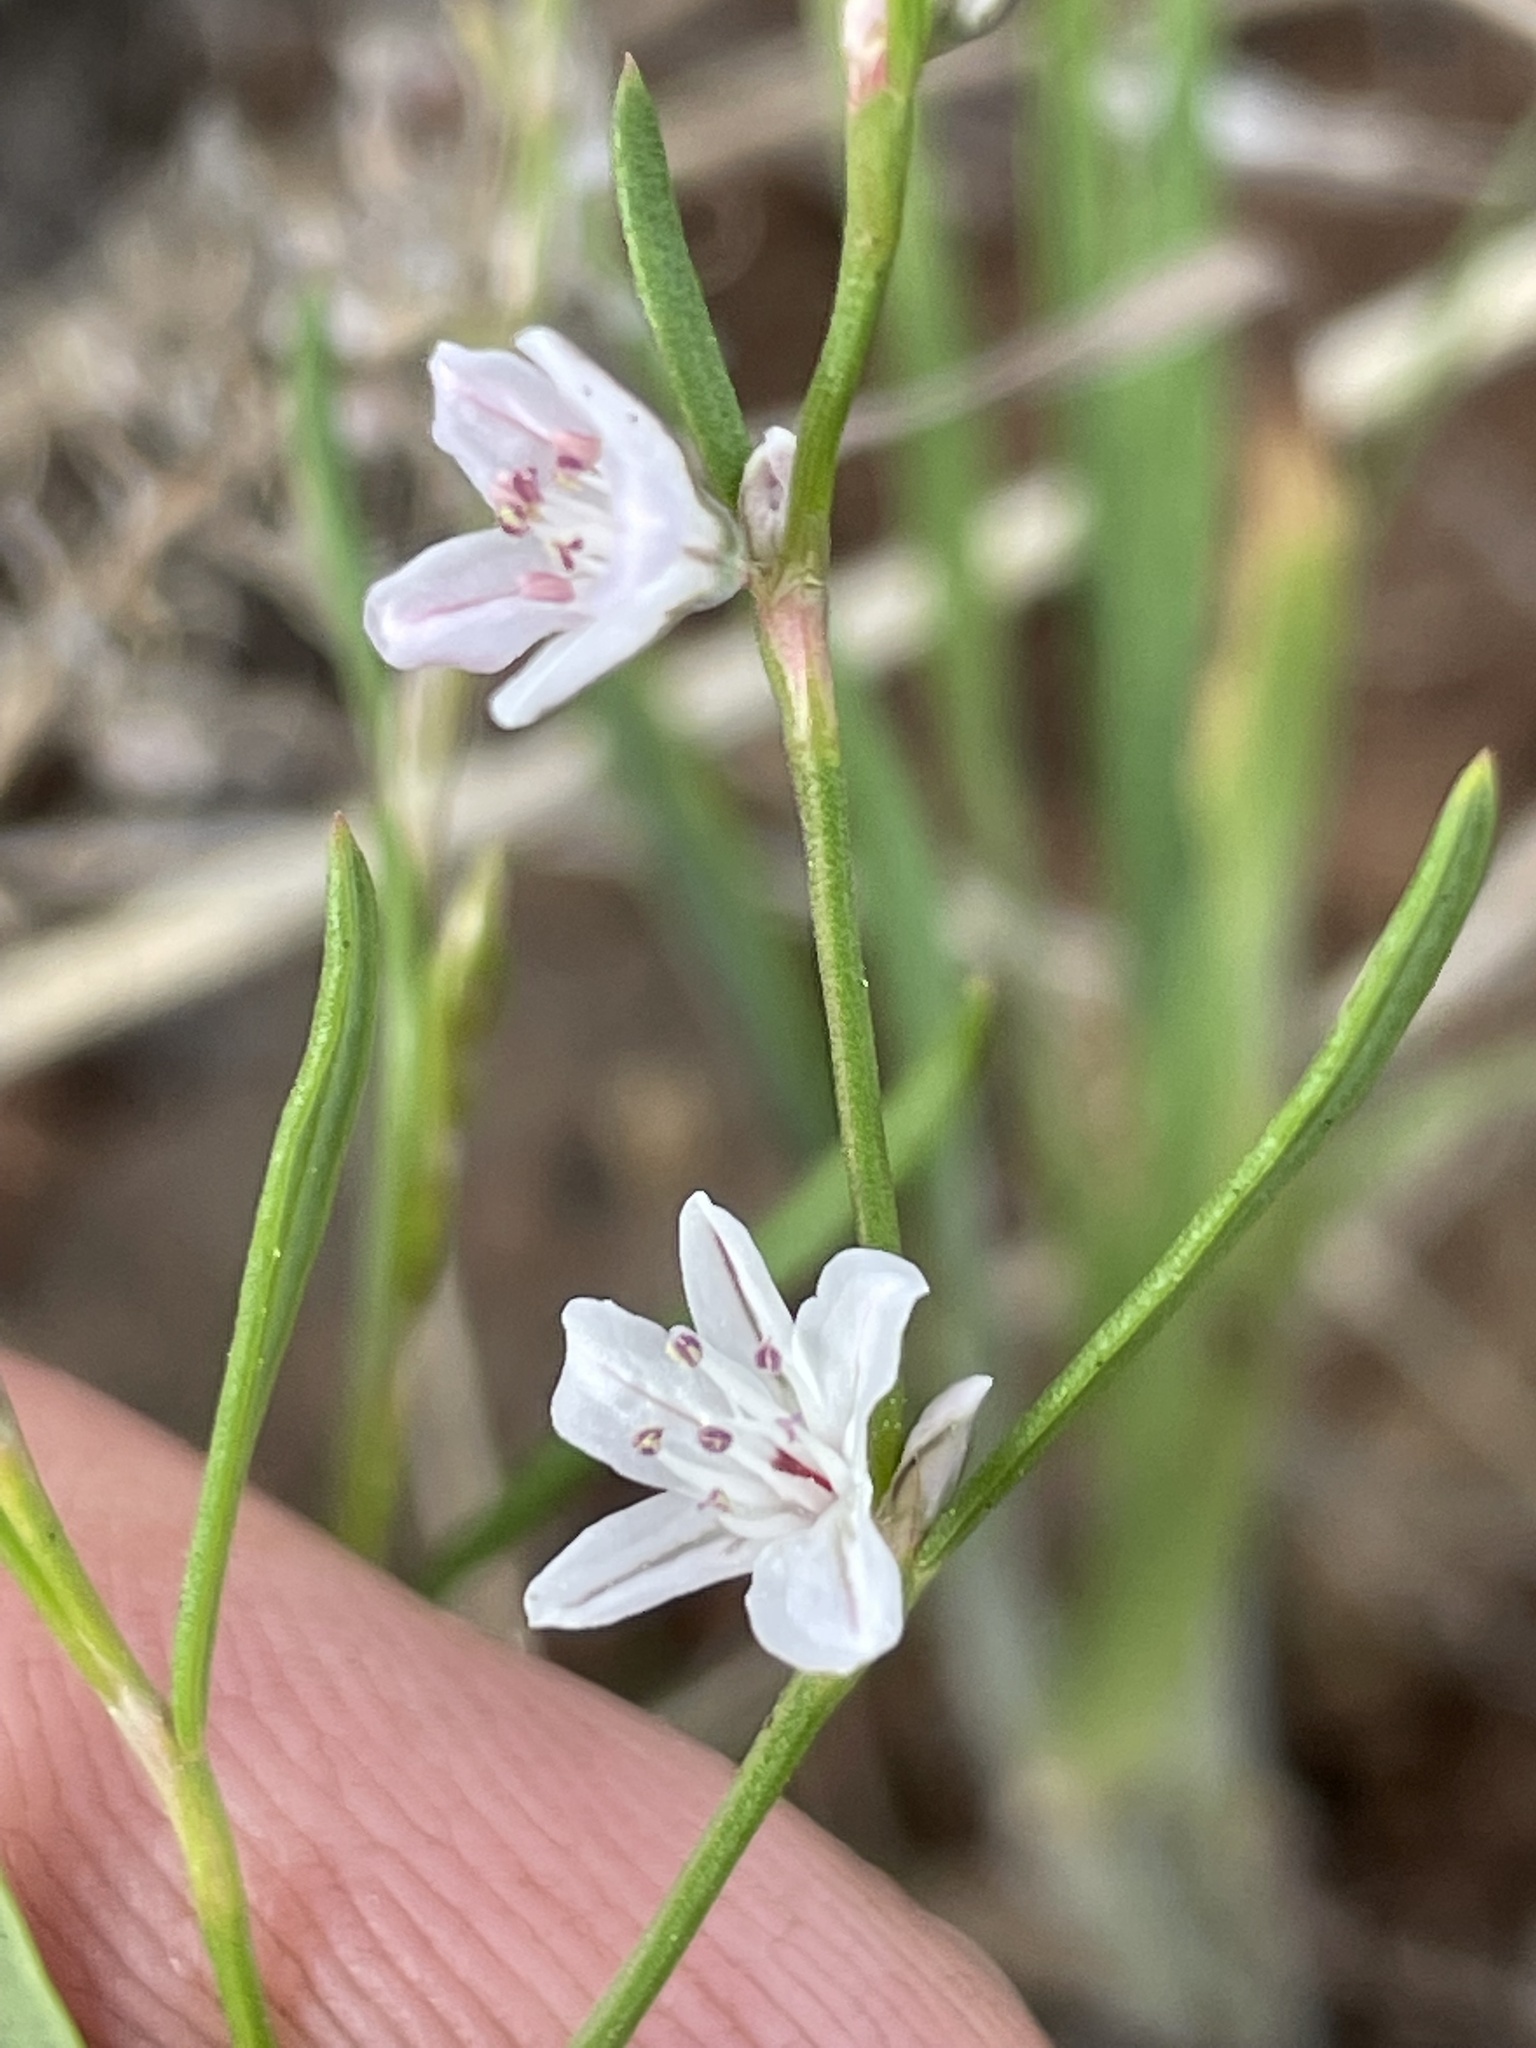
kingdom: Plantae
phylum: Tracheophyta
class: Magnoliopsida
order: Caryophyllales
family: Polygonaceae
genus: Polygonum
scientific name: Polygonum majus
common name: Large knotweed
